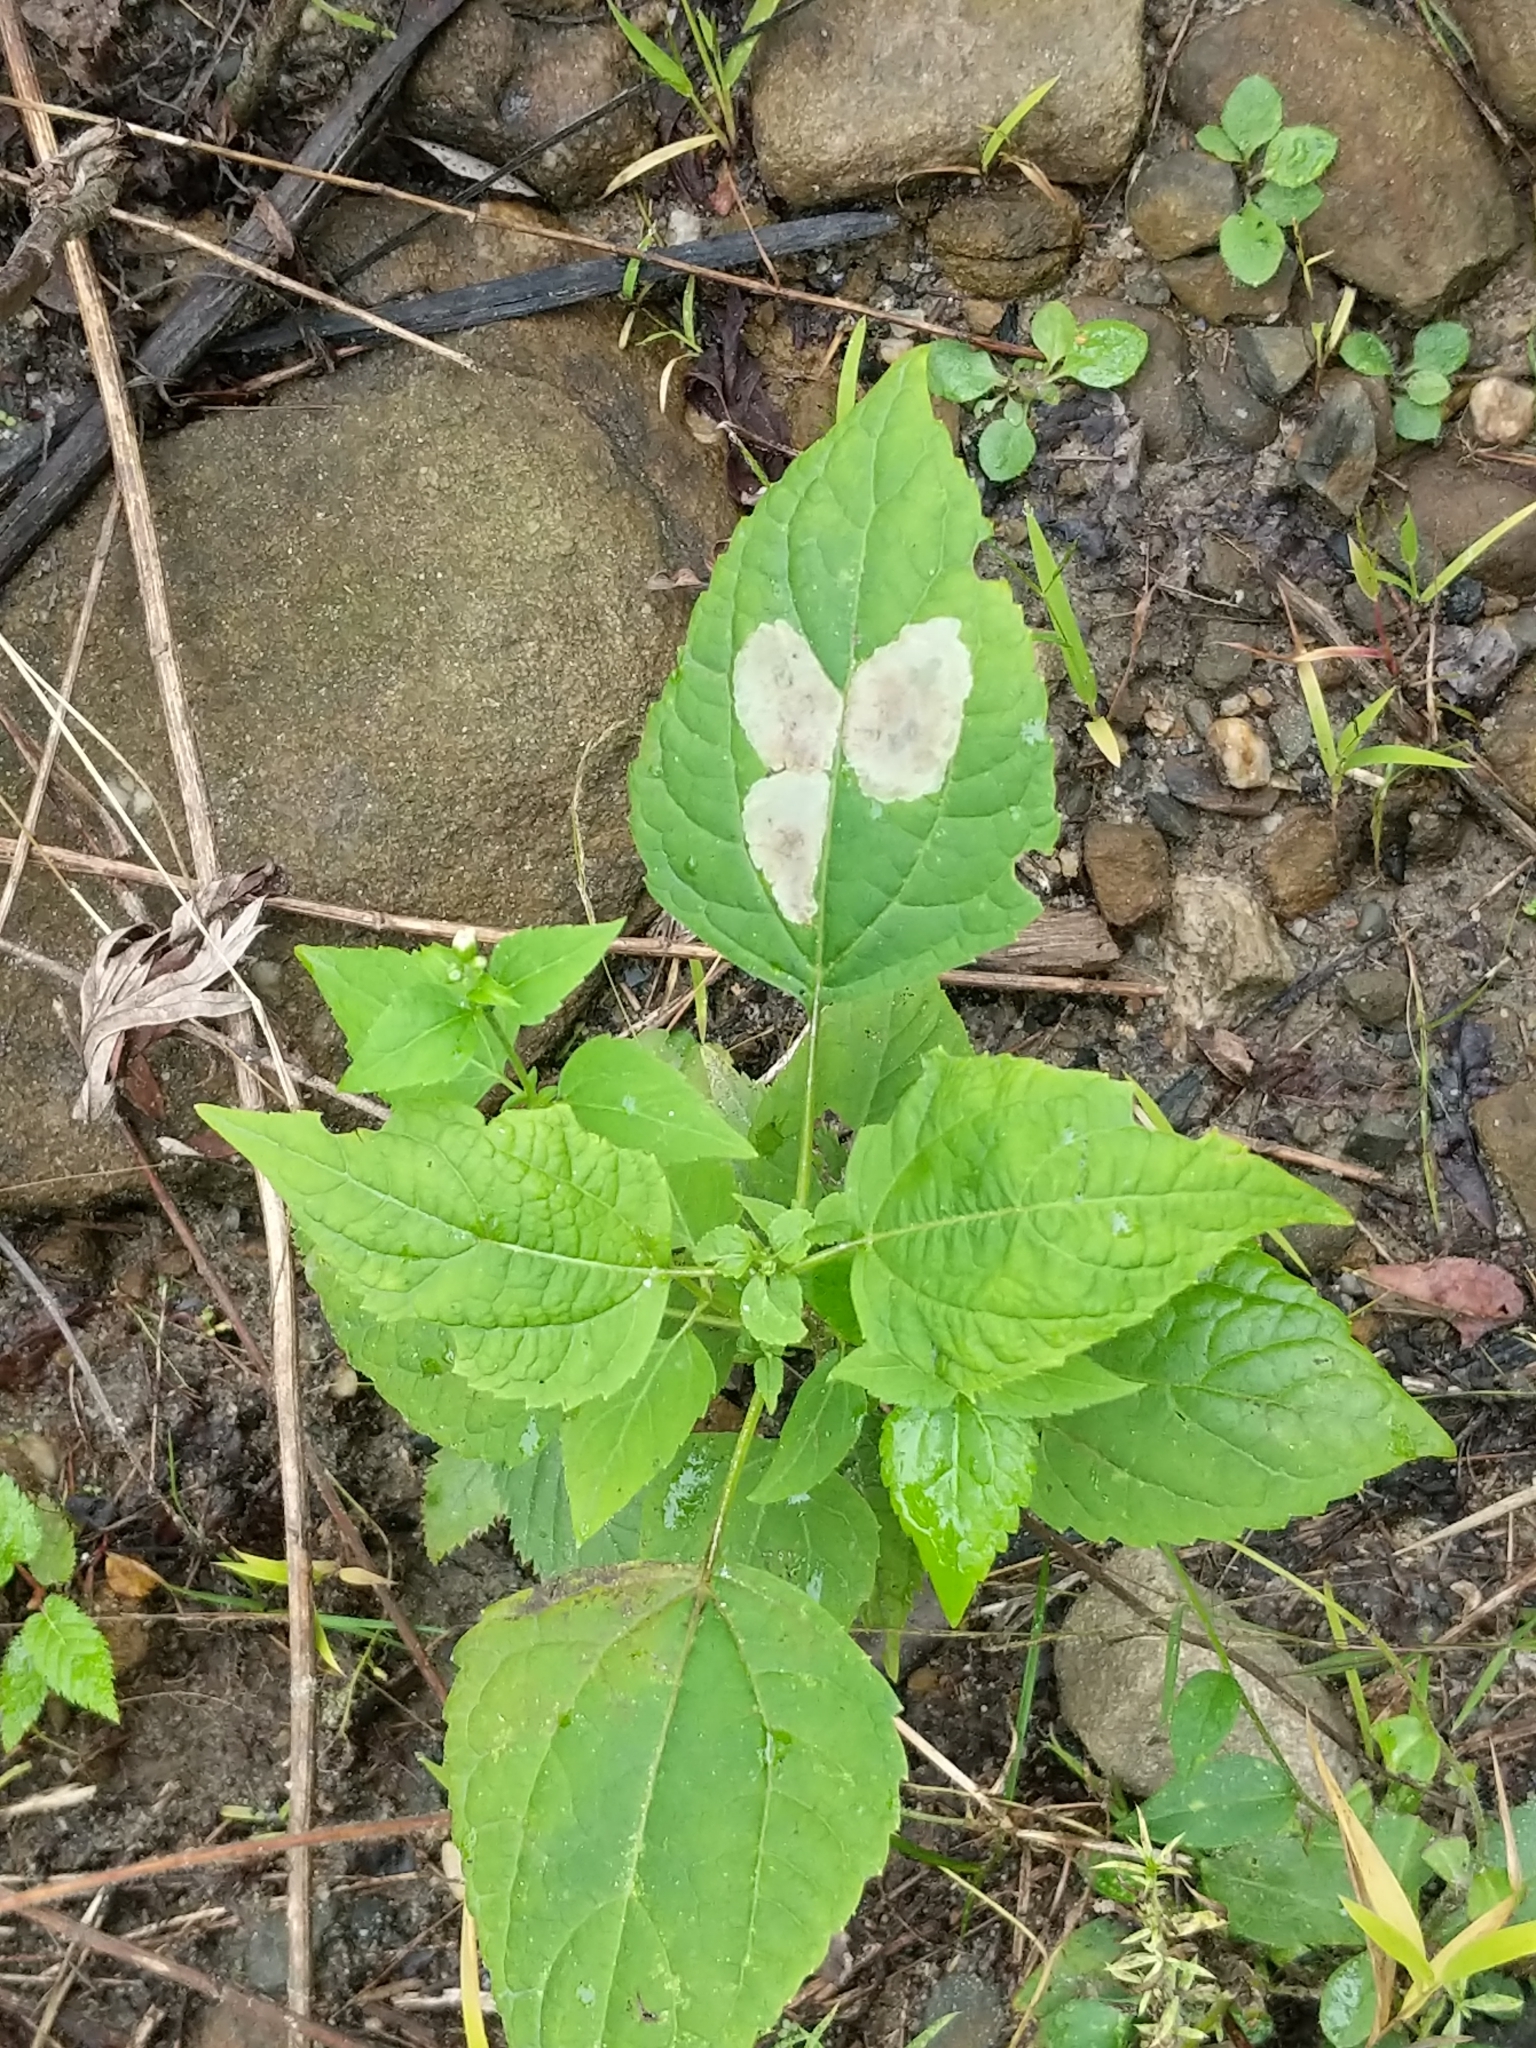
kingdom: Plantae
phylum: Tracheophyta
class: Magnoliopsida
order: Asterales
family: Asteraceae
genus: Ageratina
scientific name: Ageratina altissima
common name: White snakeroot
